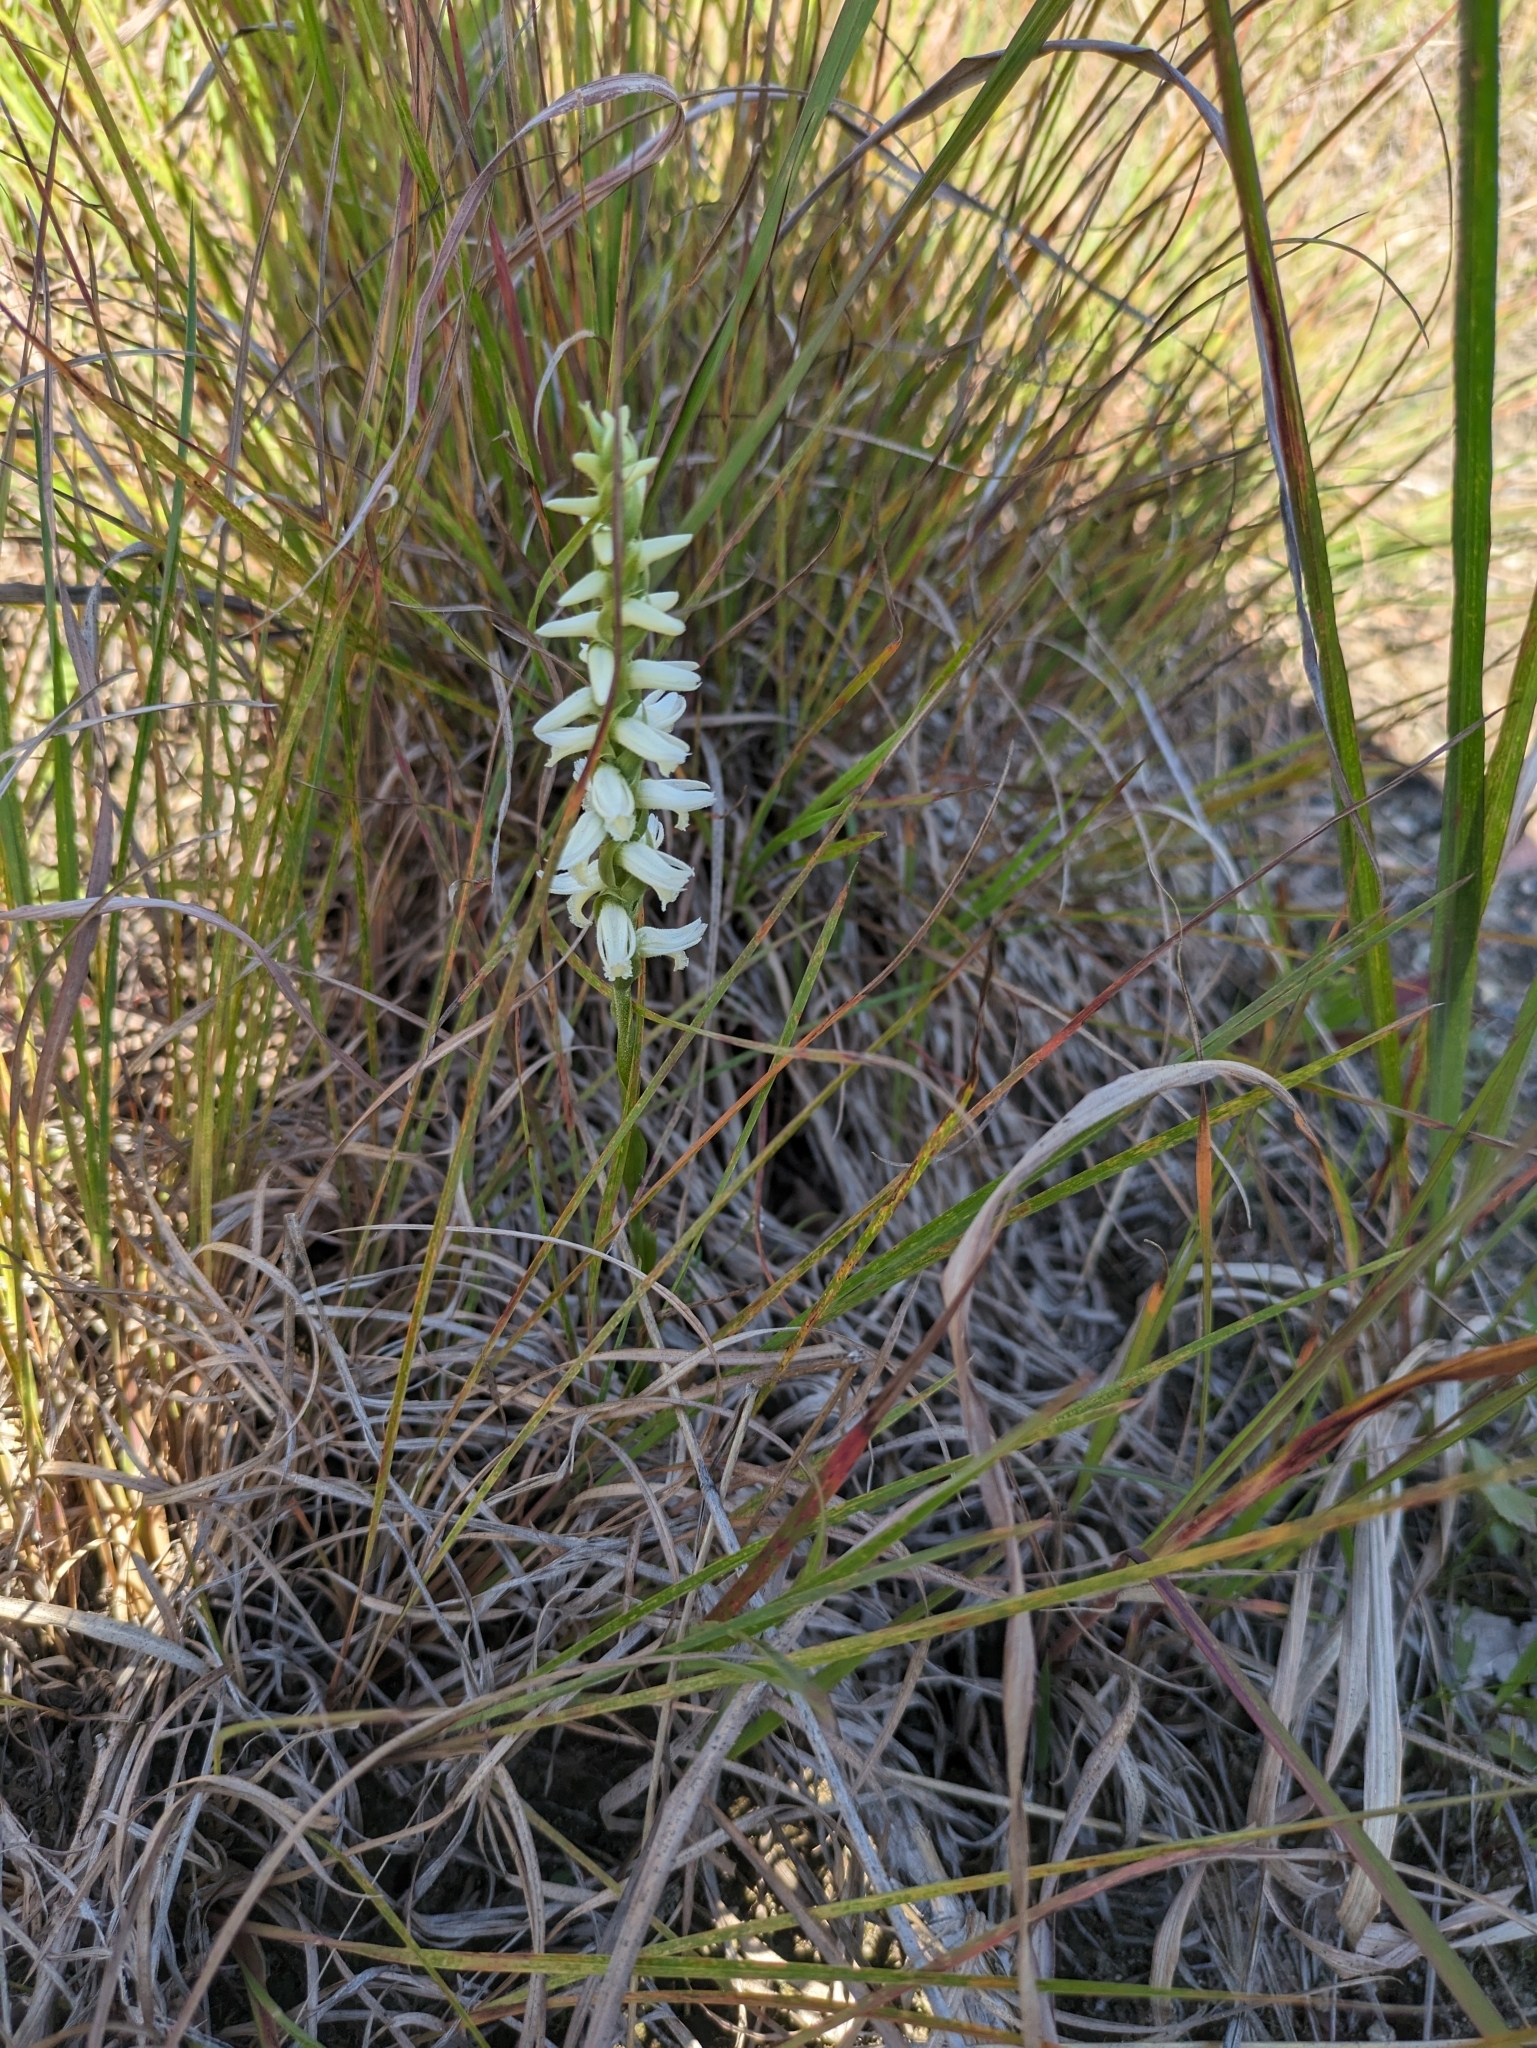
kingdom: Plantae
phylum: Tracheophyta
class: Liliopsida
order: Asparagales
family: Orchidaceae
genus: Spiranthes
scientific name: Spiranthes magnicamporum
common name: Great plains ladies'-tresses
